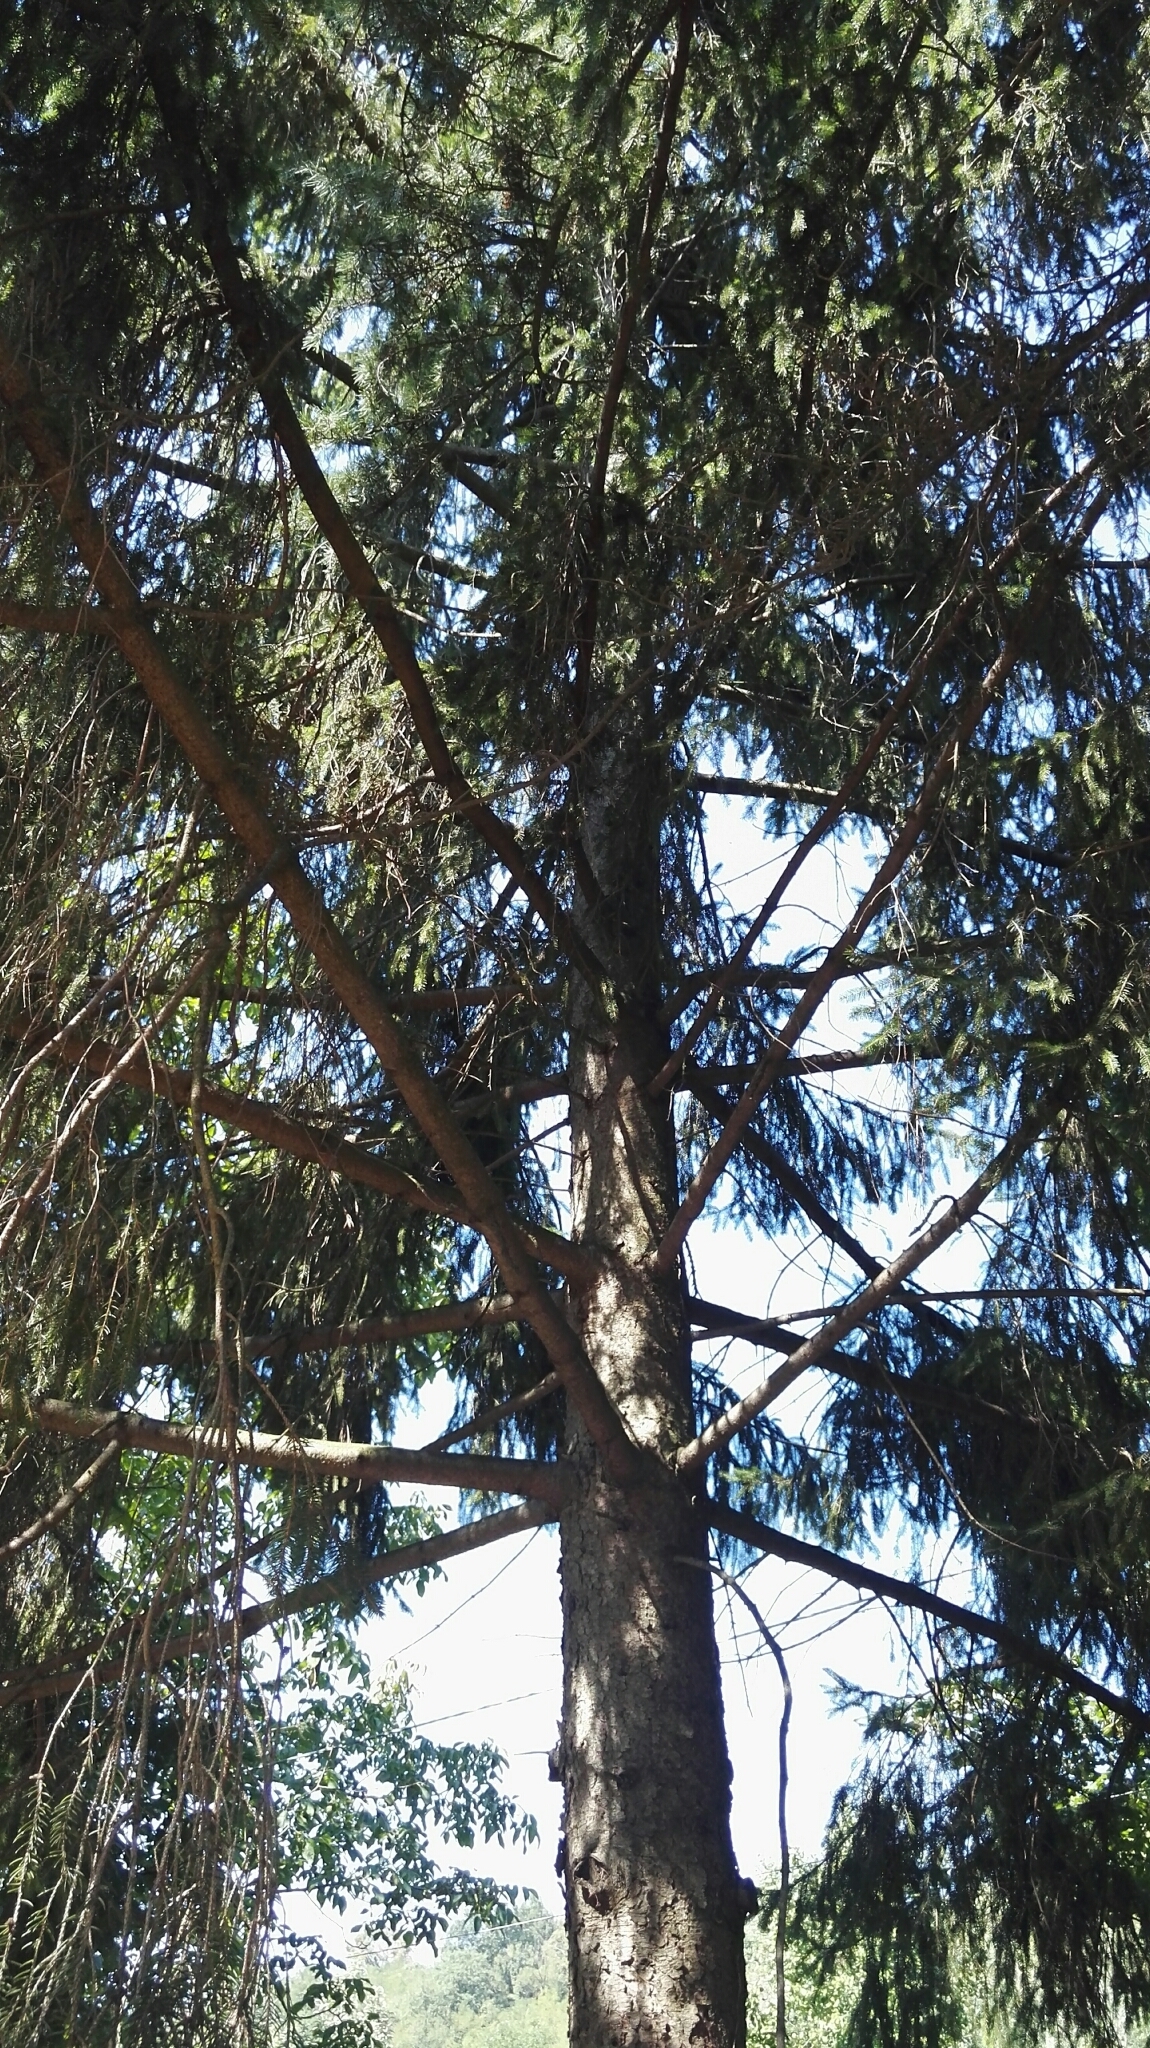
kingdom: Plantae
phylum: Tracheophyta
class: Pinopsida
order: Pinales
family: Pinaceae
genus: Picea
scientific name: Picea abies
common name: Norway spruce
